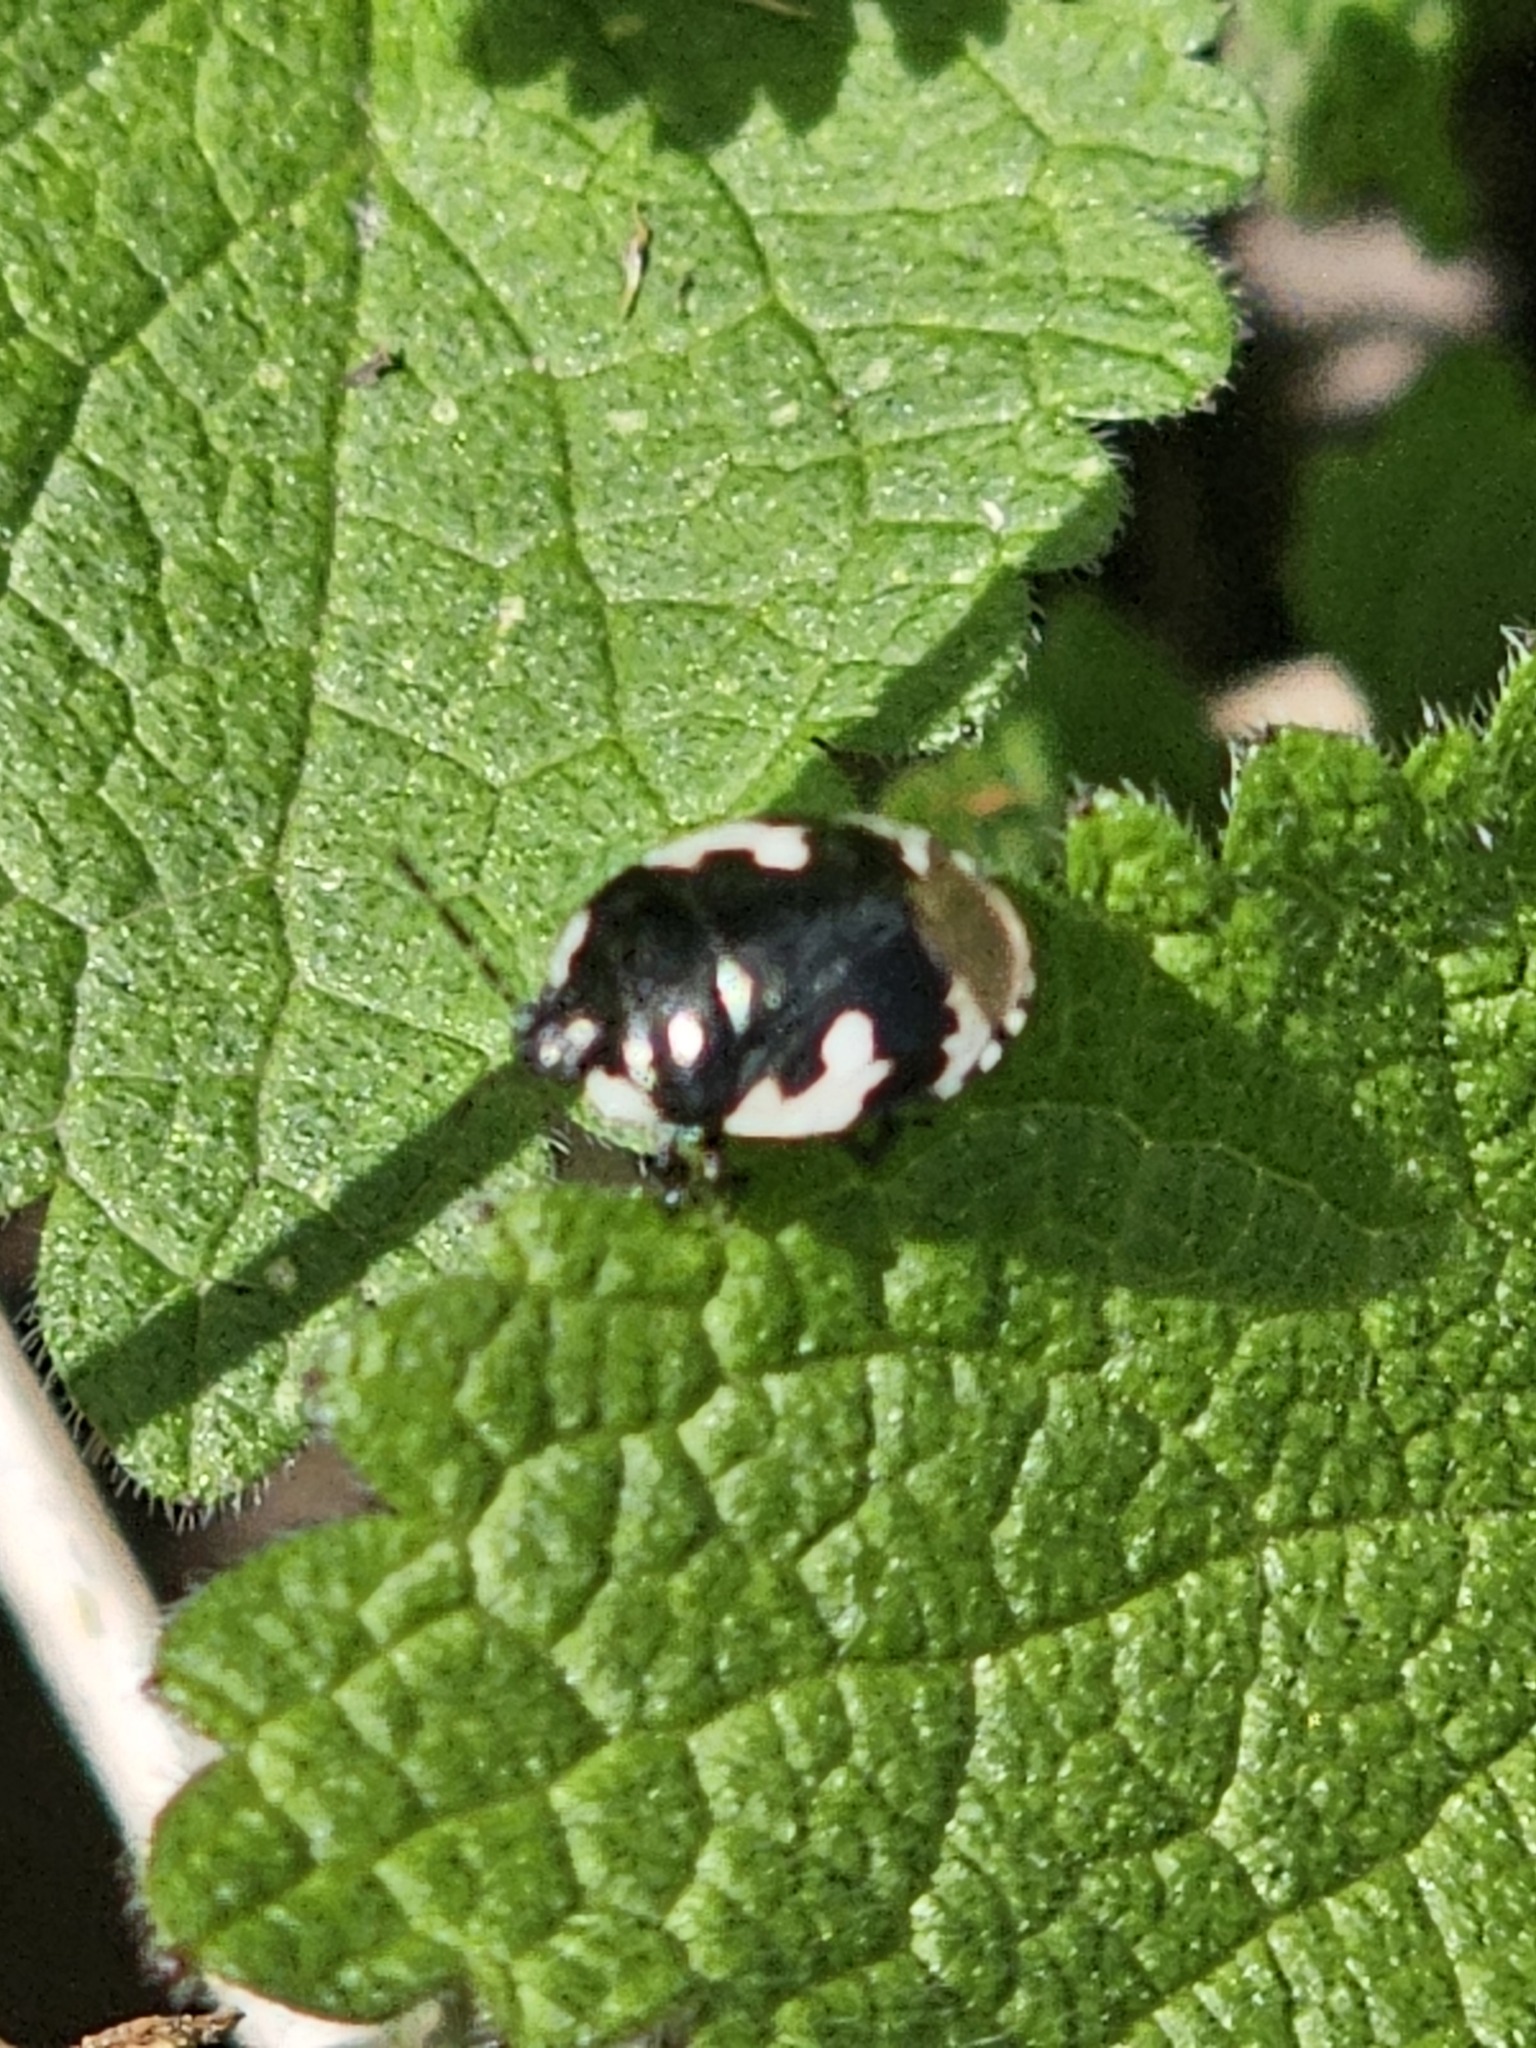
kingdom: Animalia
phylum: Arthropoda
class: Insecta
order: Hemiptera
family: Cydnidae
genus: Tritomegas
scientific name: Tritomegas bicolor
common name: Pied shieldbug
